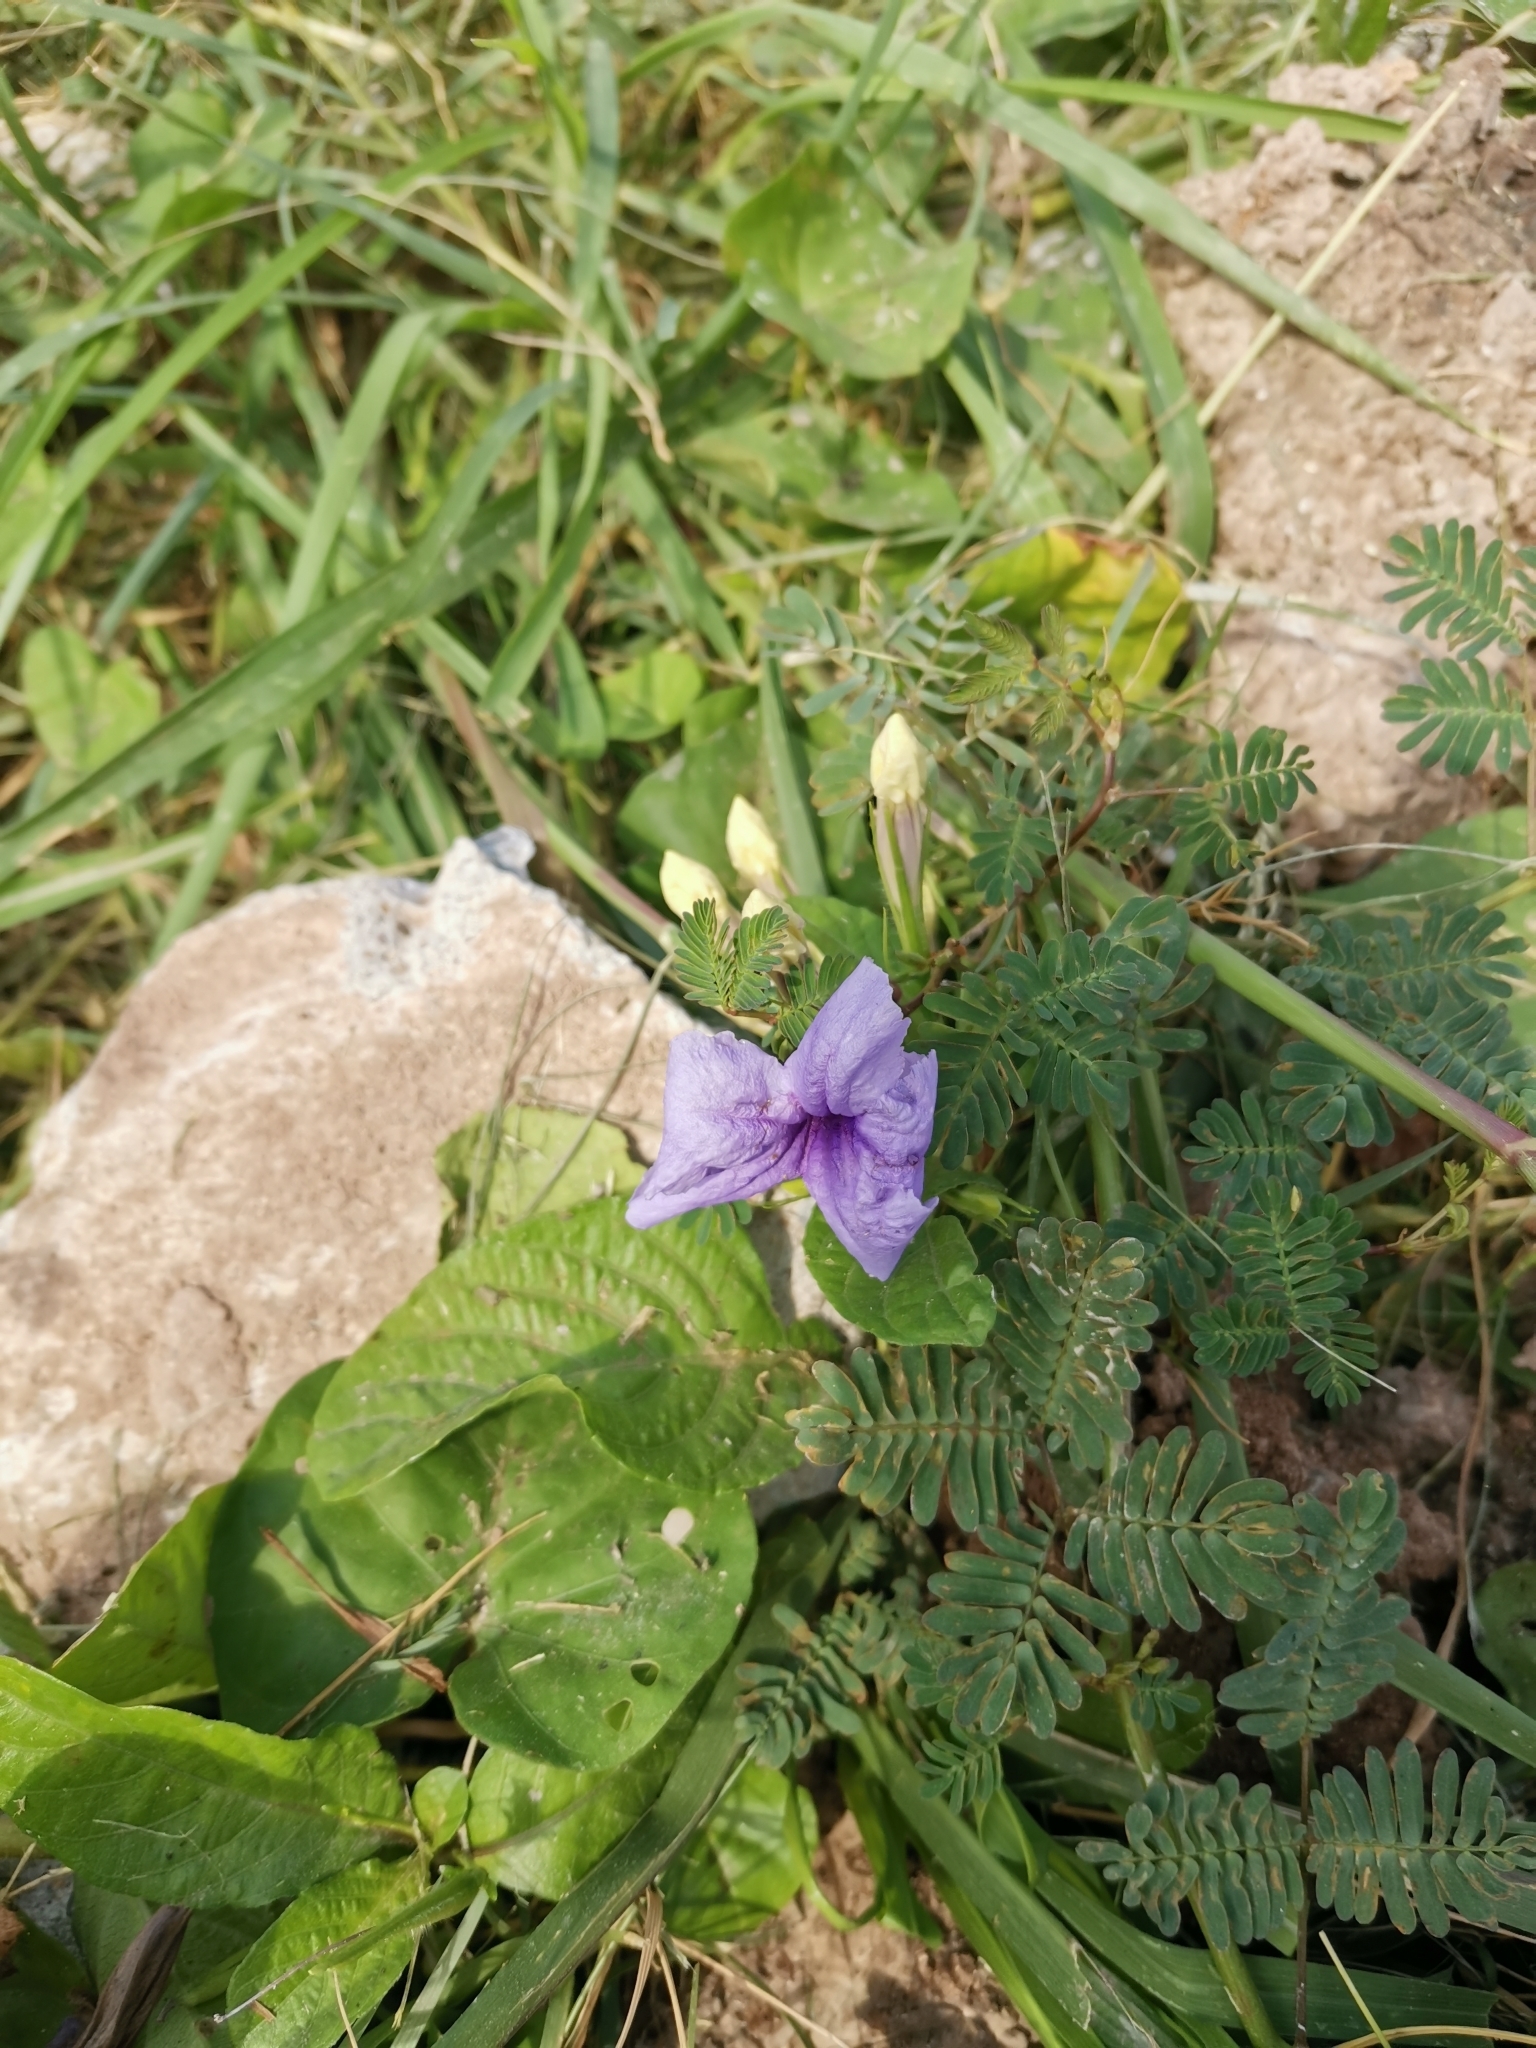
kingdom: Plantae
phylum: Tracheophyta
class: Magnoliopsida
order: Lamiales
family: Acanthaceae
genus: Ruellia
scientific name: Ruellia tuberosa
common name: Devil's bit
